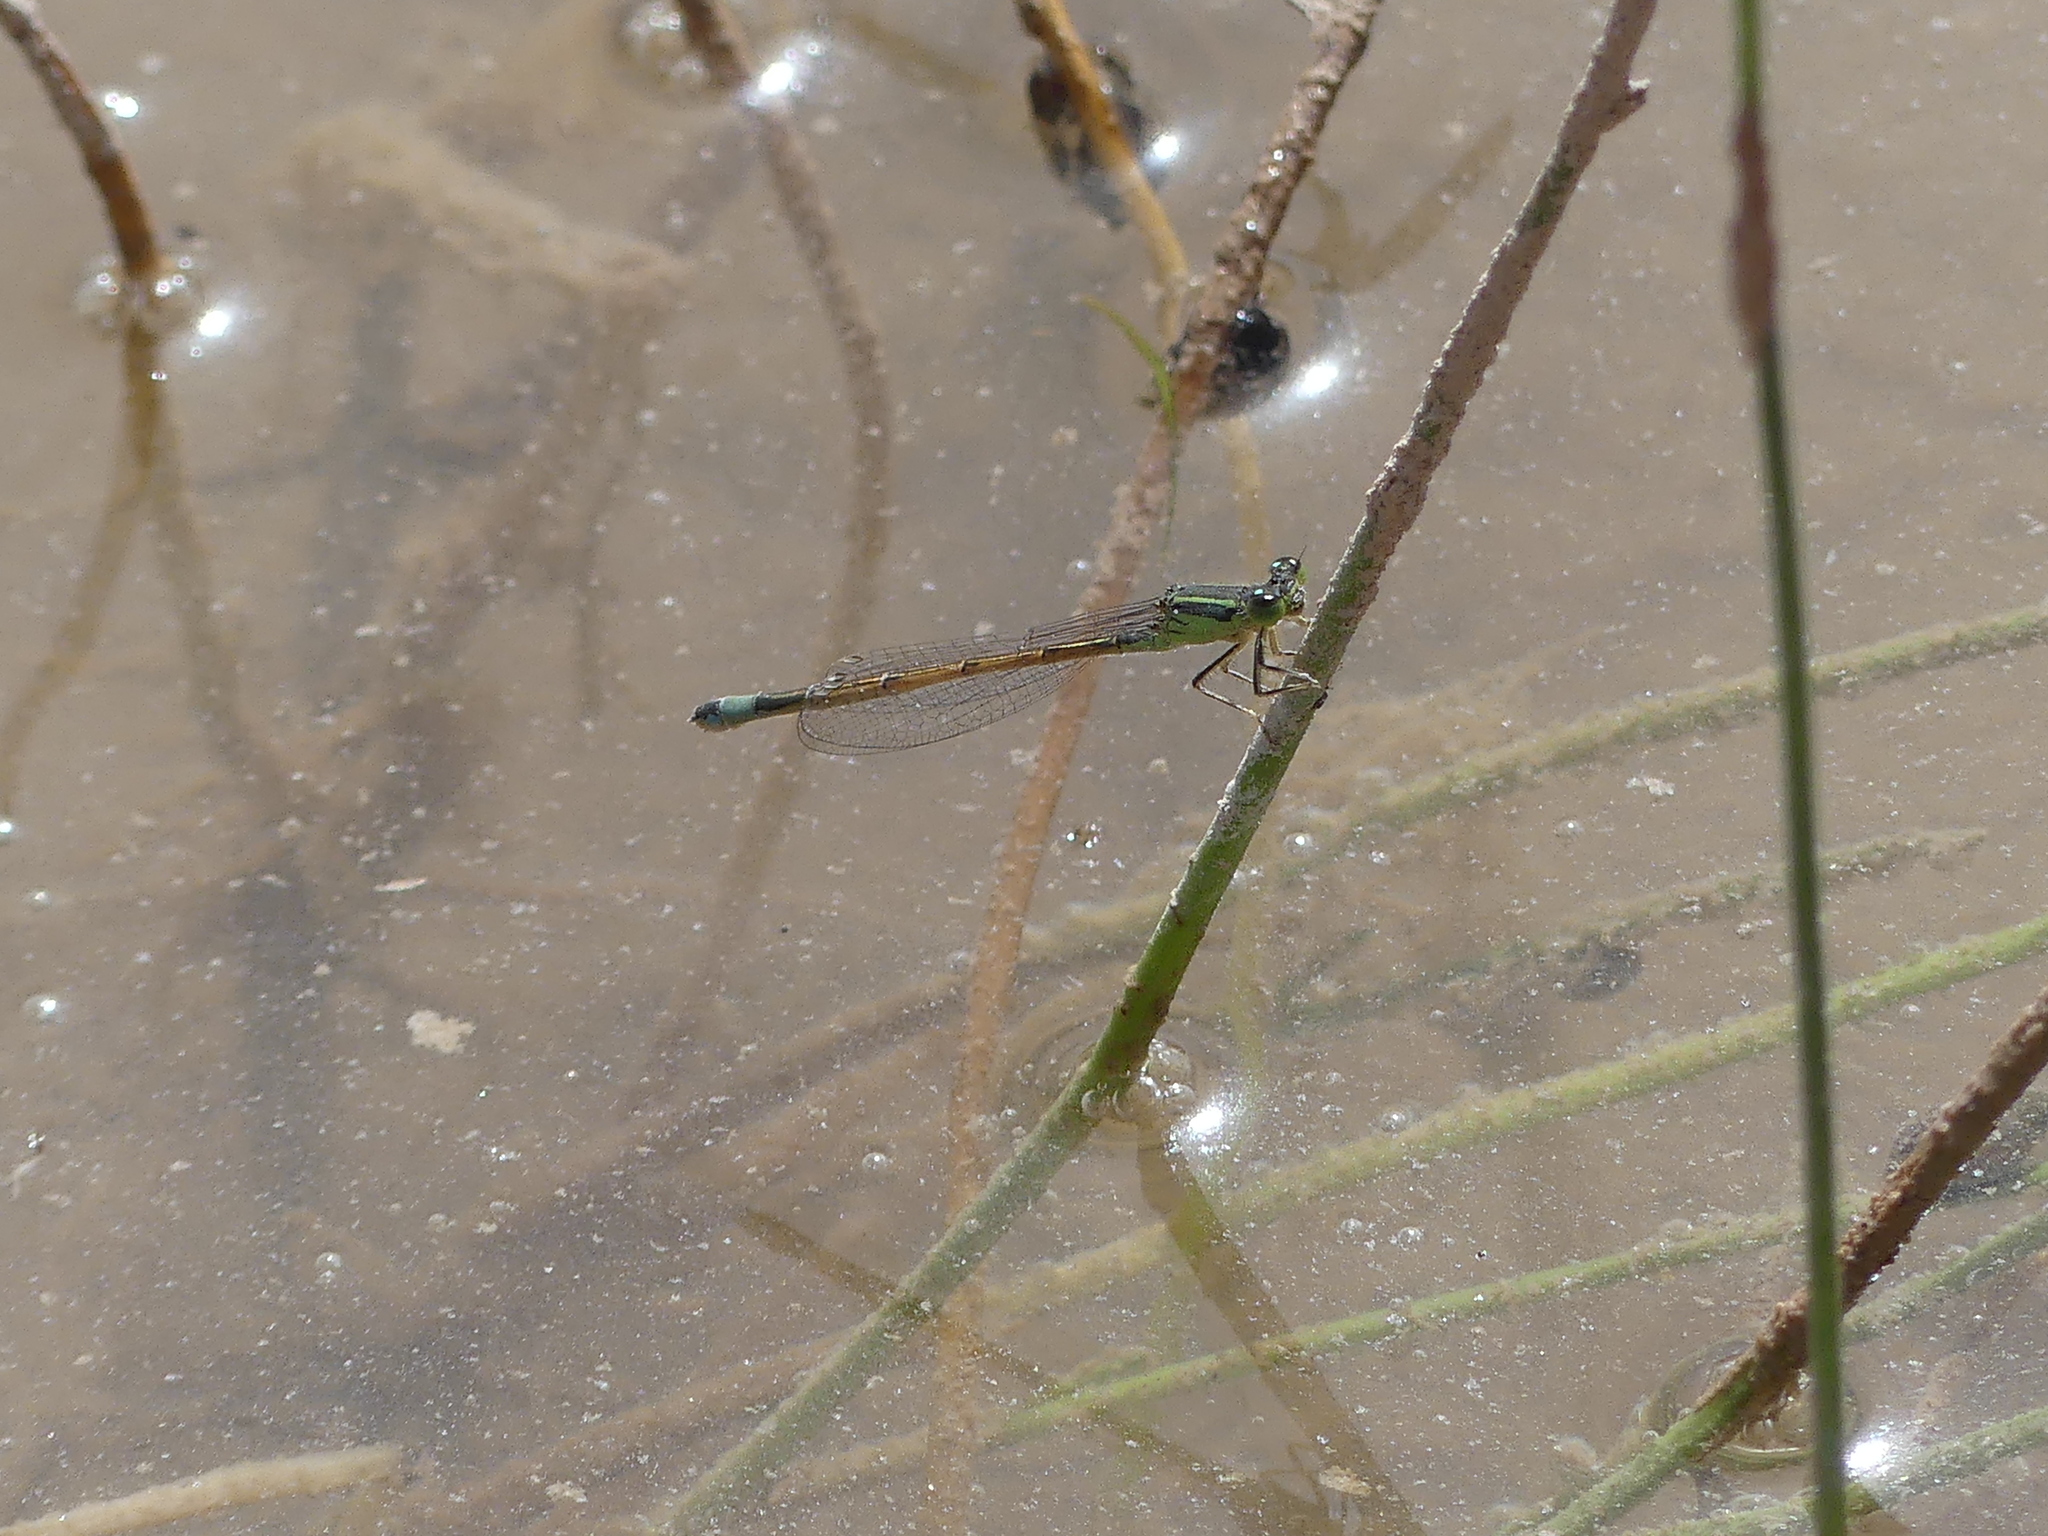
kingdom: Animalia
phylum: Arthropoda
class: Insecta
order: Odonata
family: Coenagrionidae
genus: Ischnura
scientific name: Ischnura saharensis
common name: Sahara bluetail
